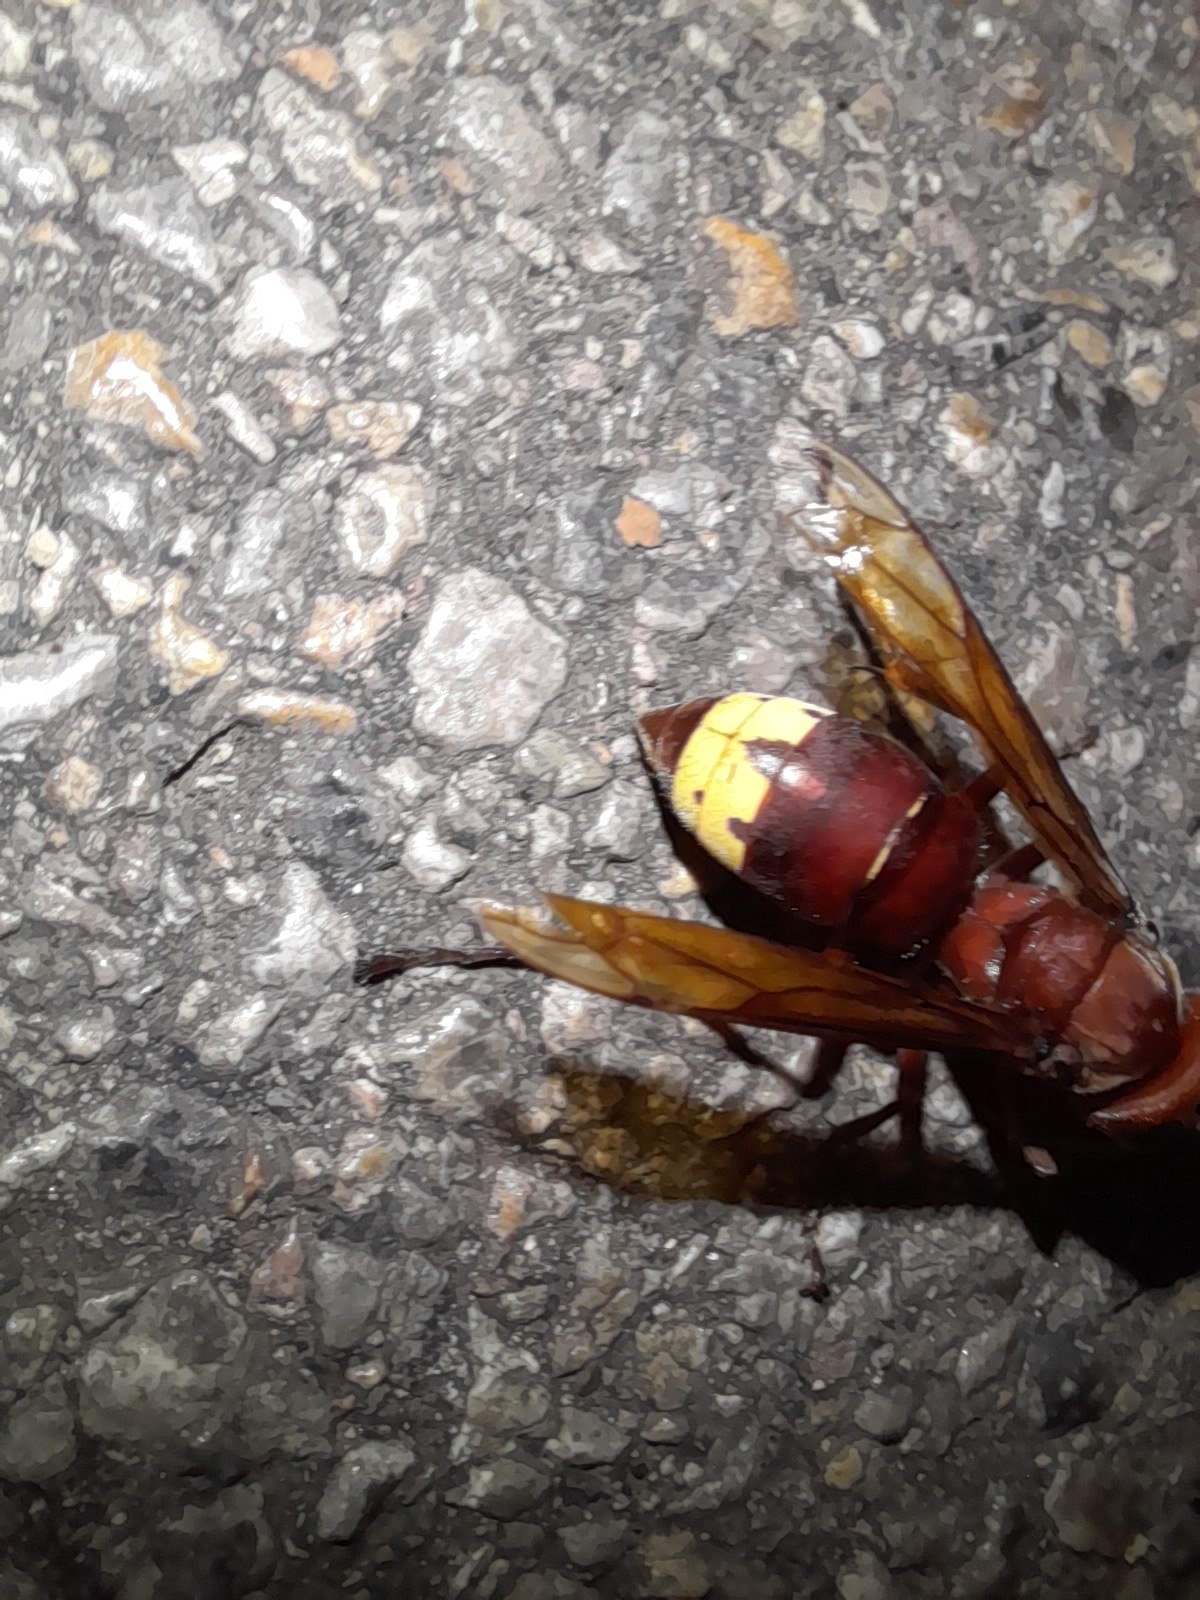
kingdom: Animalia
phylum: Arthropoda
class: Insecta
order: Hymenoptera
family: Vespidae
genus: Vespa
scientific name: Vespa orientalis
